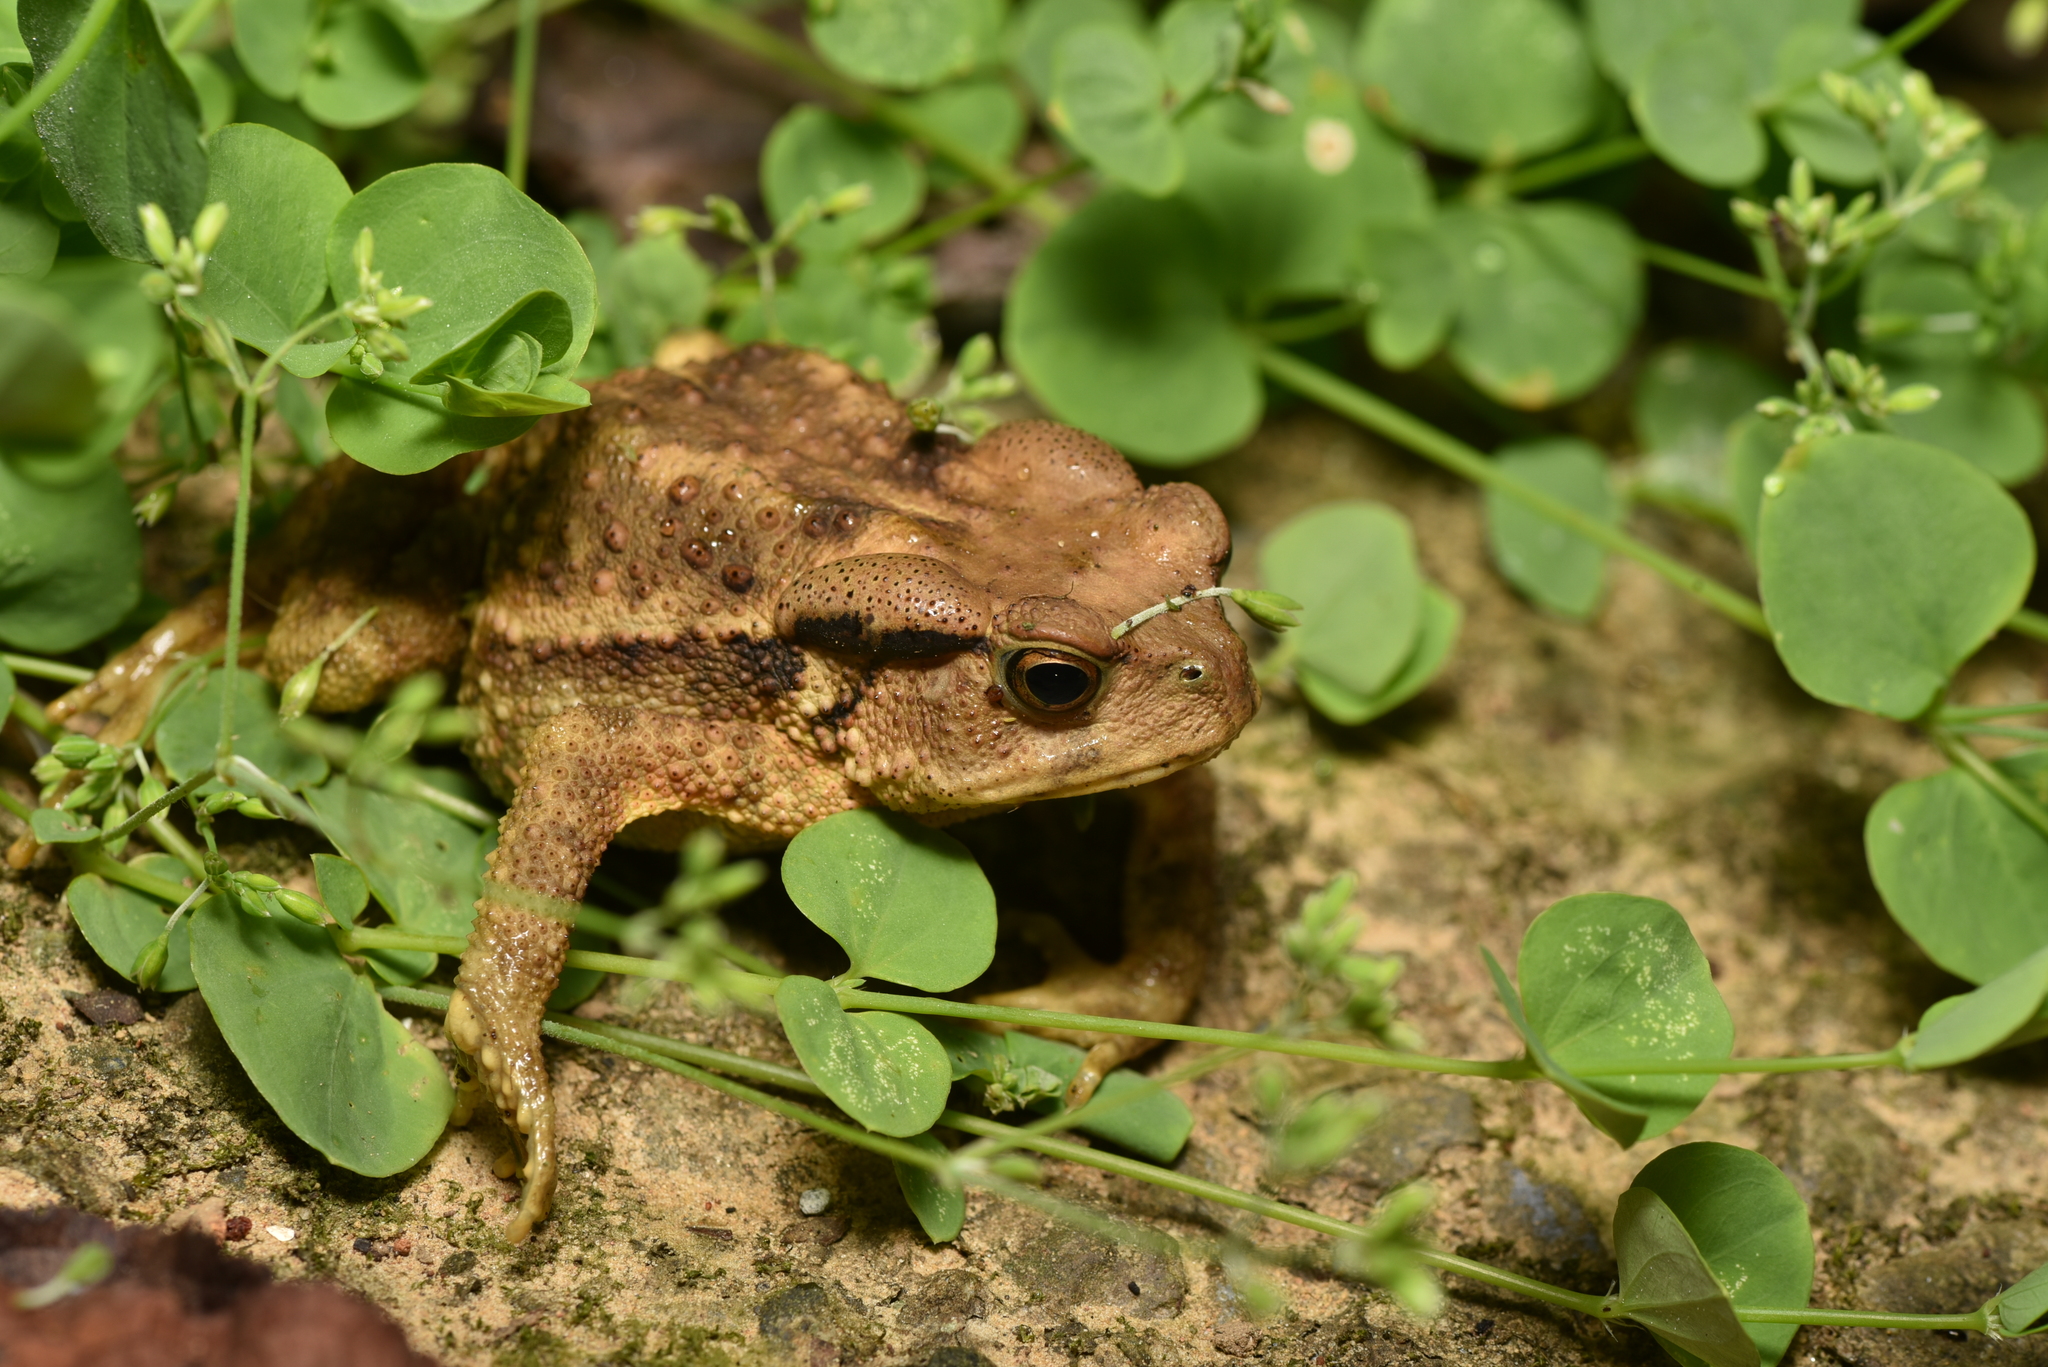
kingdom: Animalia
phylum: Chordata
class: Amphibia
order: Anura
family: Bufonidae
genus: Bufo
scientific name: Bufo bankorensis
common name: Bankor toad
